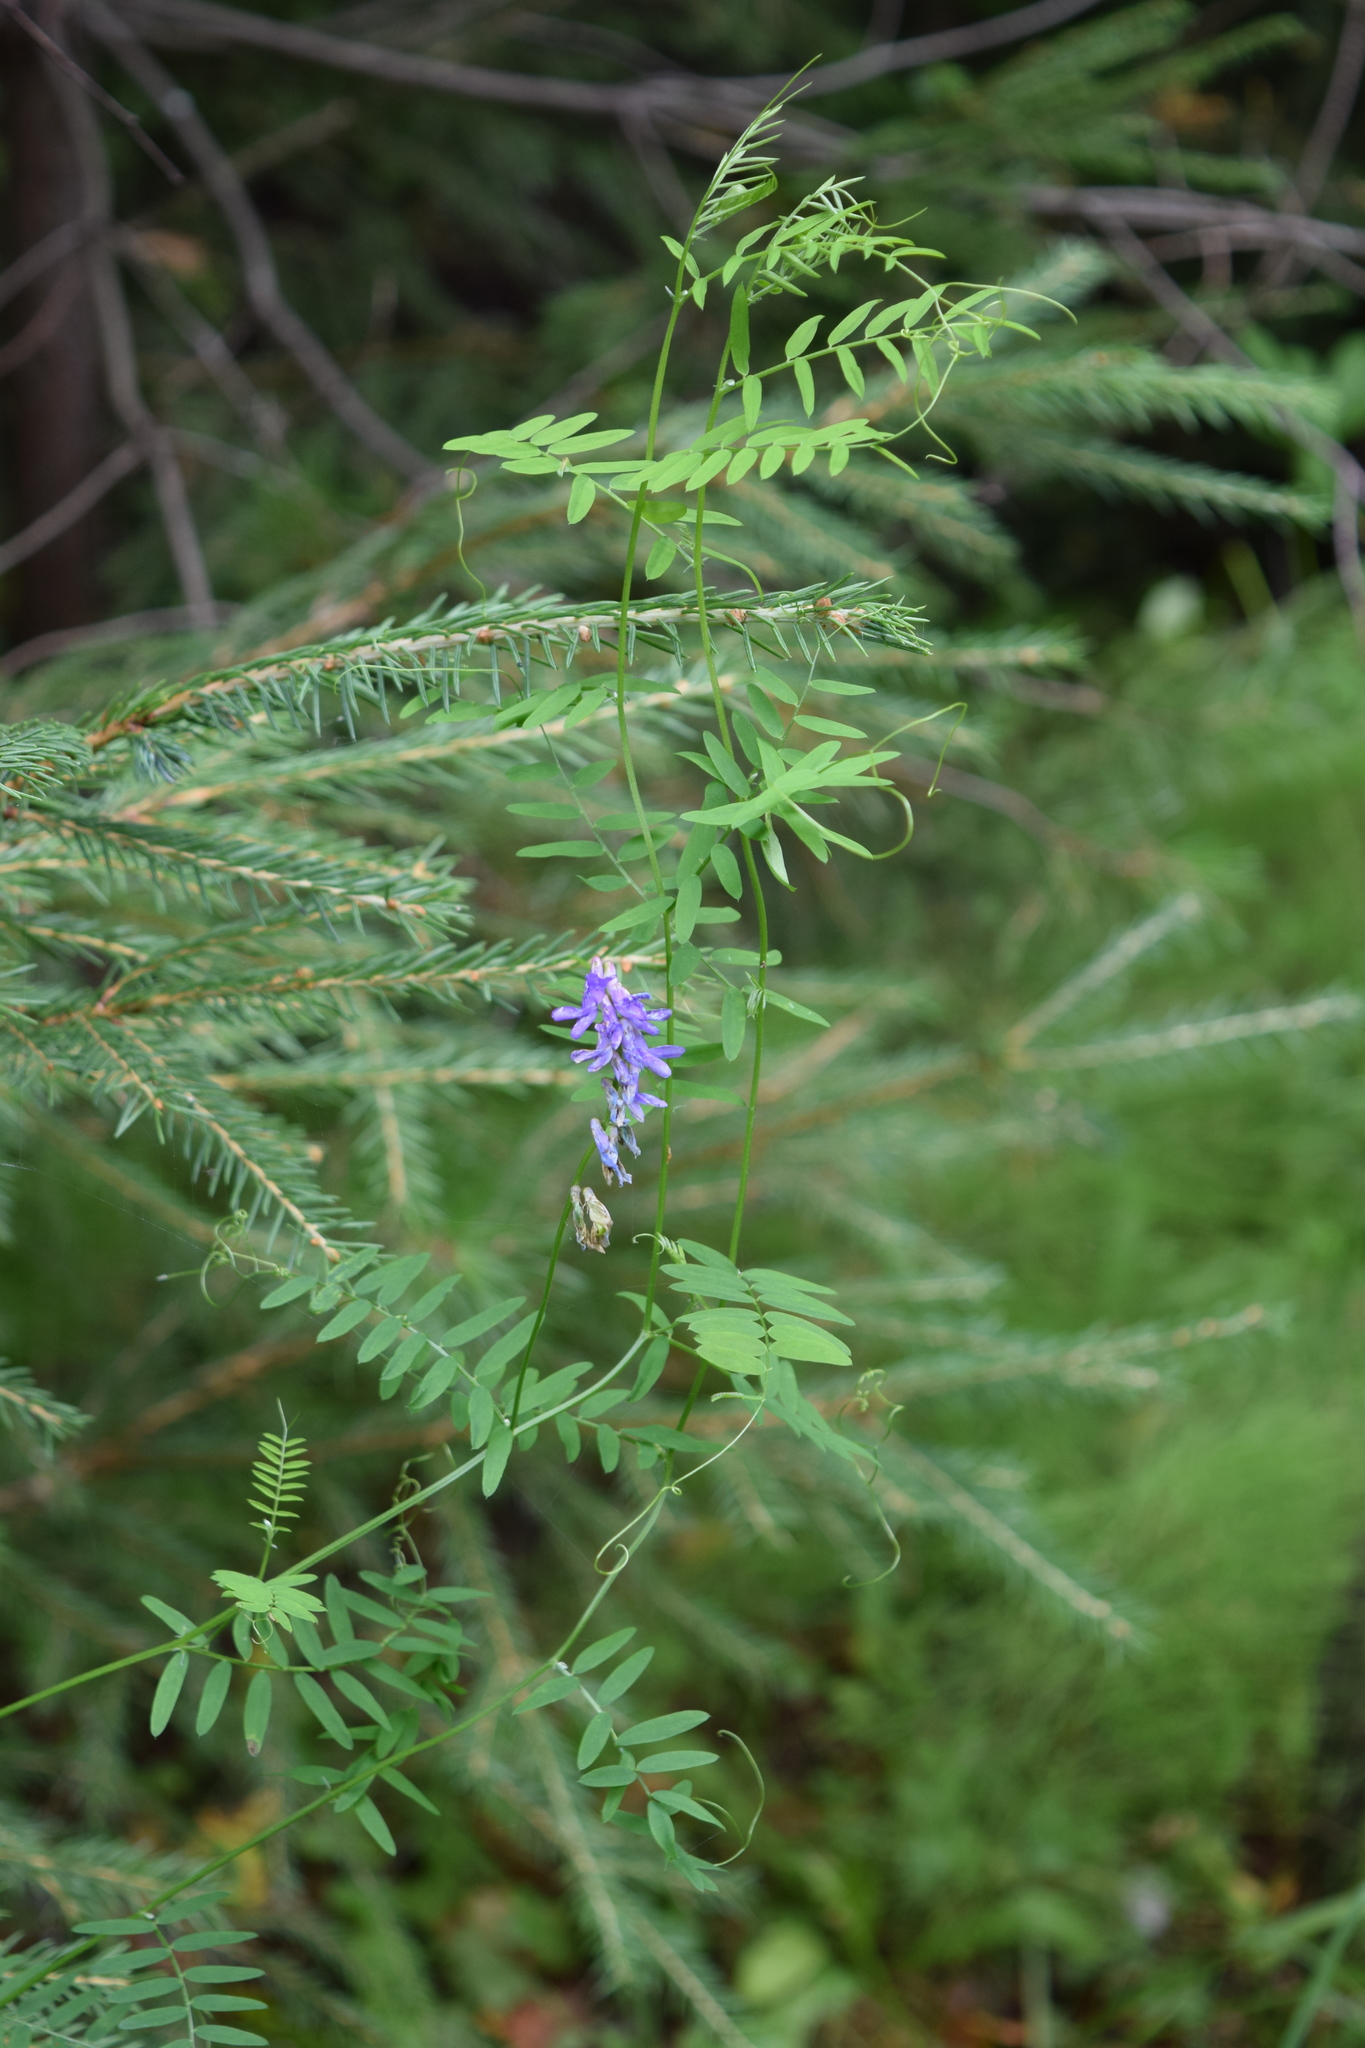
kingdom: Plantae
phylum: Tracheophyta
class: Magnoliopsida
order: Fabales
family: Fabaceae
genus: Vicia
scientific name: Vicia cracca
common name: Bird vetch
